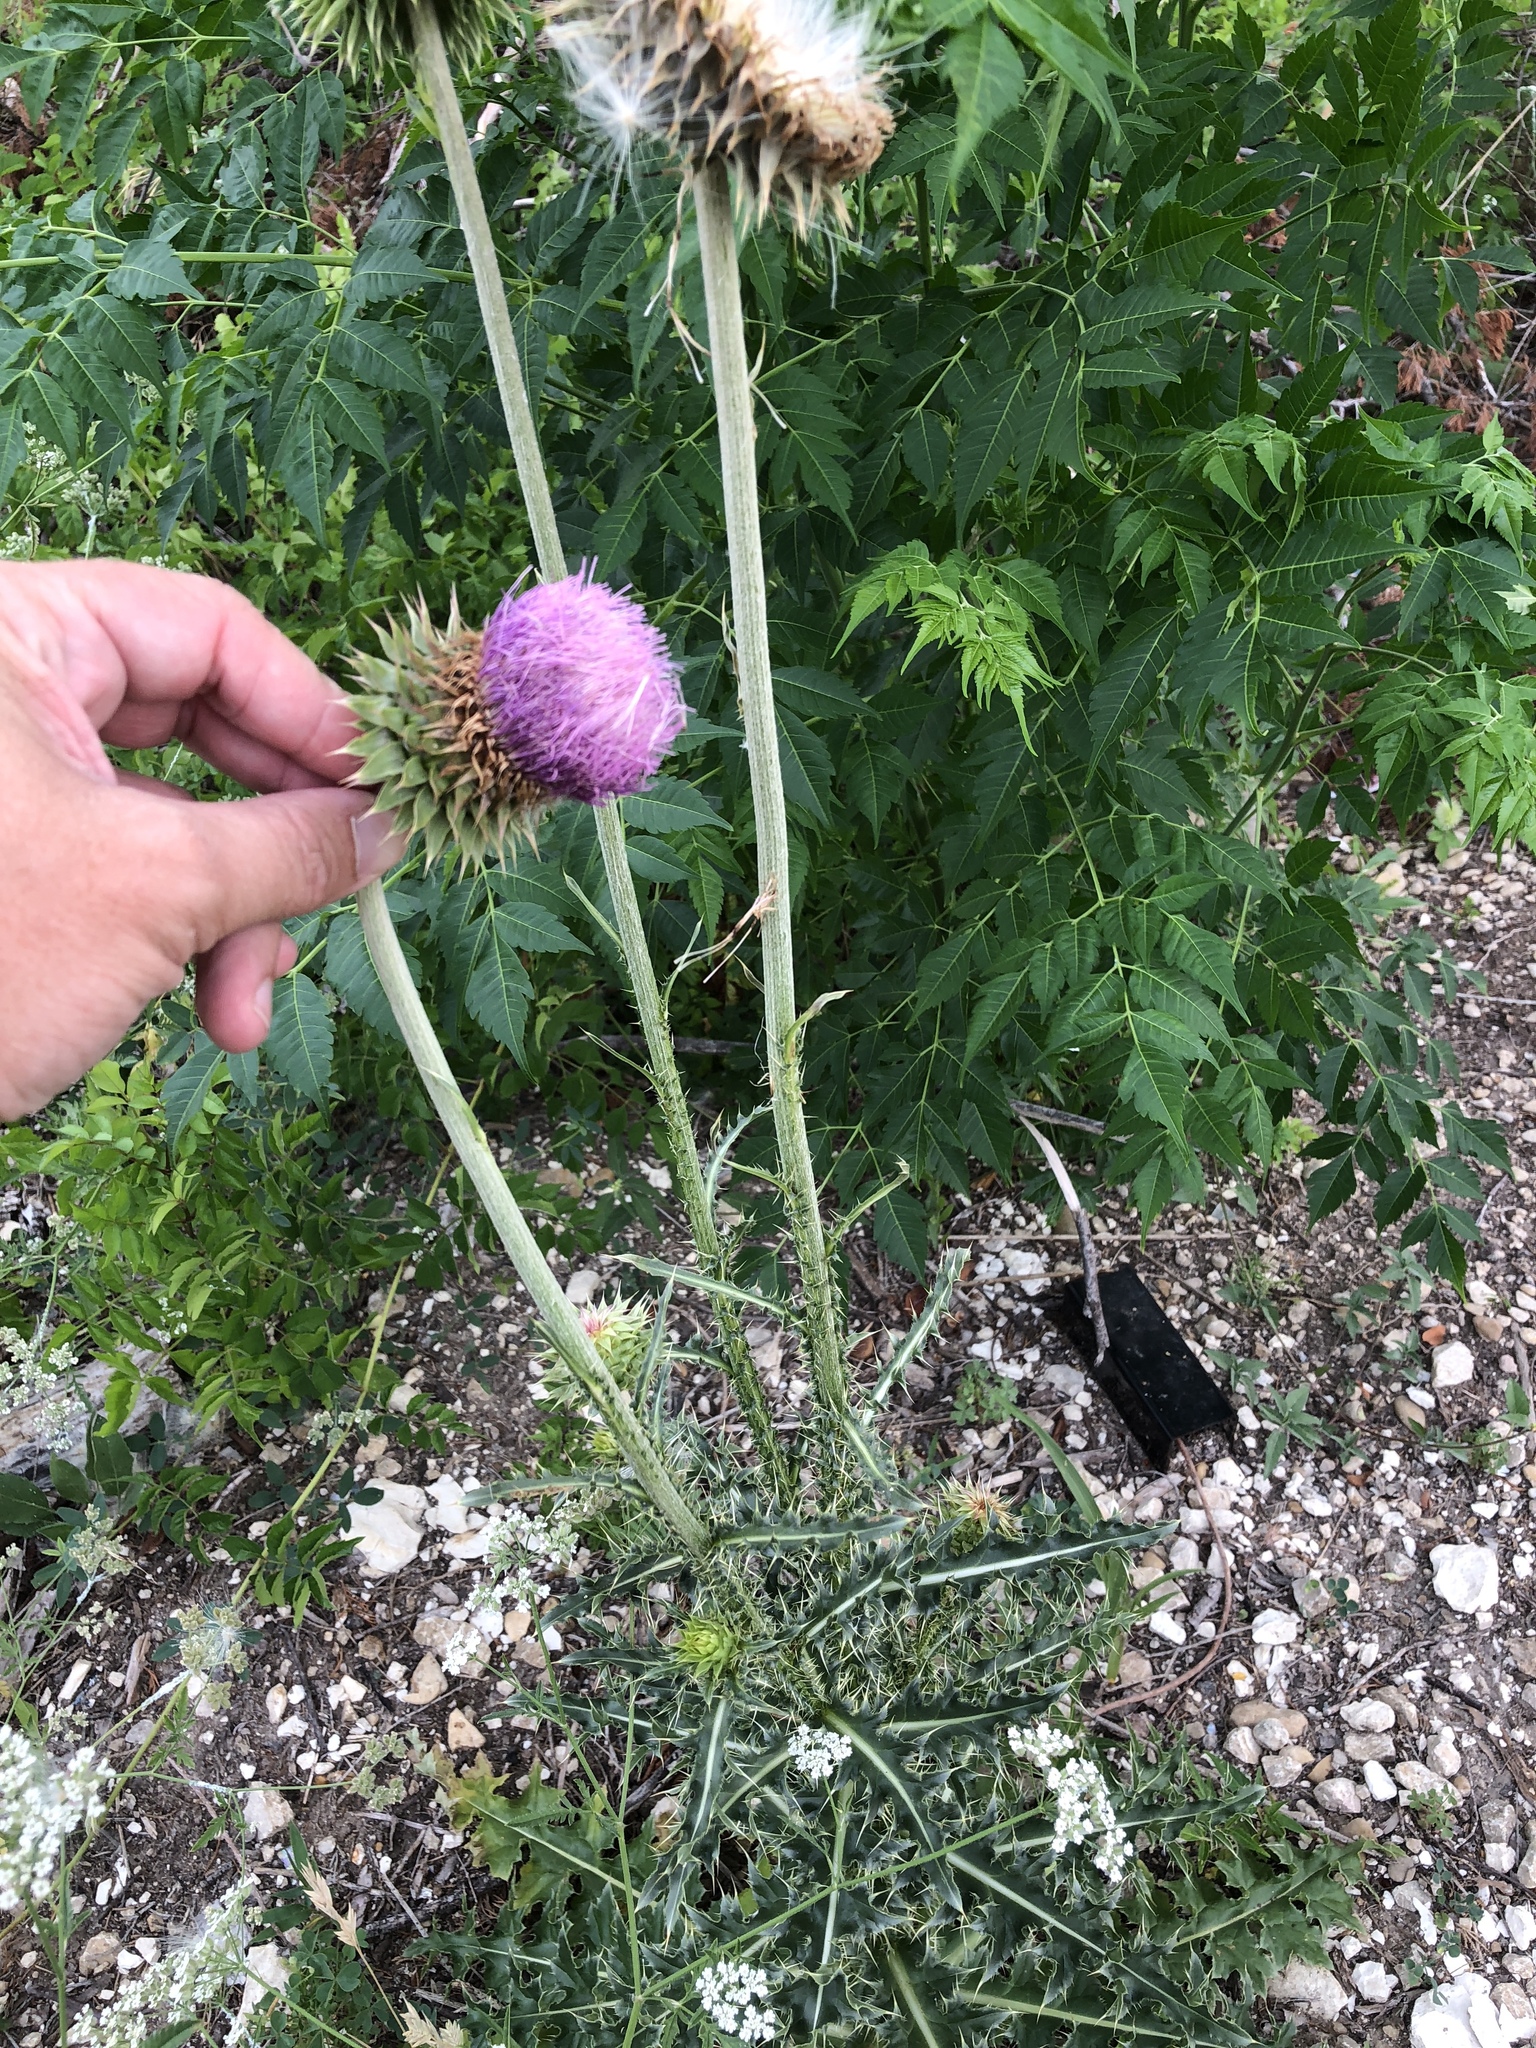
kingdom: Plantae
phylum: Tracheophyta
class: Magnoliopsida
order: Asterales
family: Asteraceae
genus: Carduus
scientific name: Carduus nutans
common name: Musk thistle
